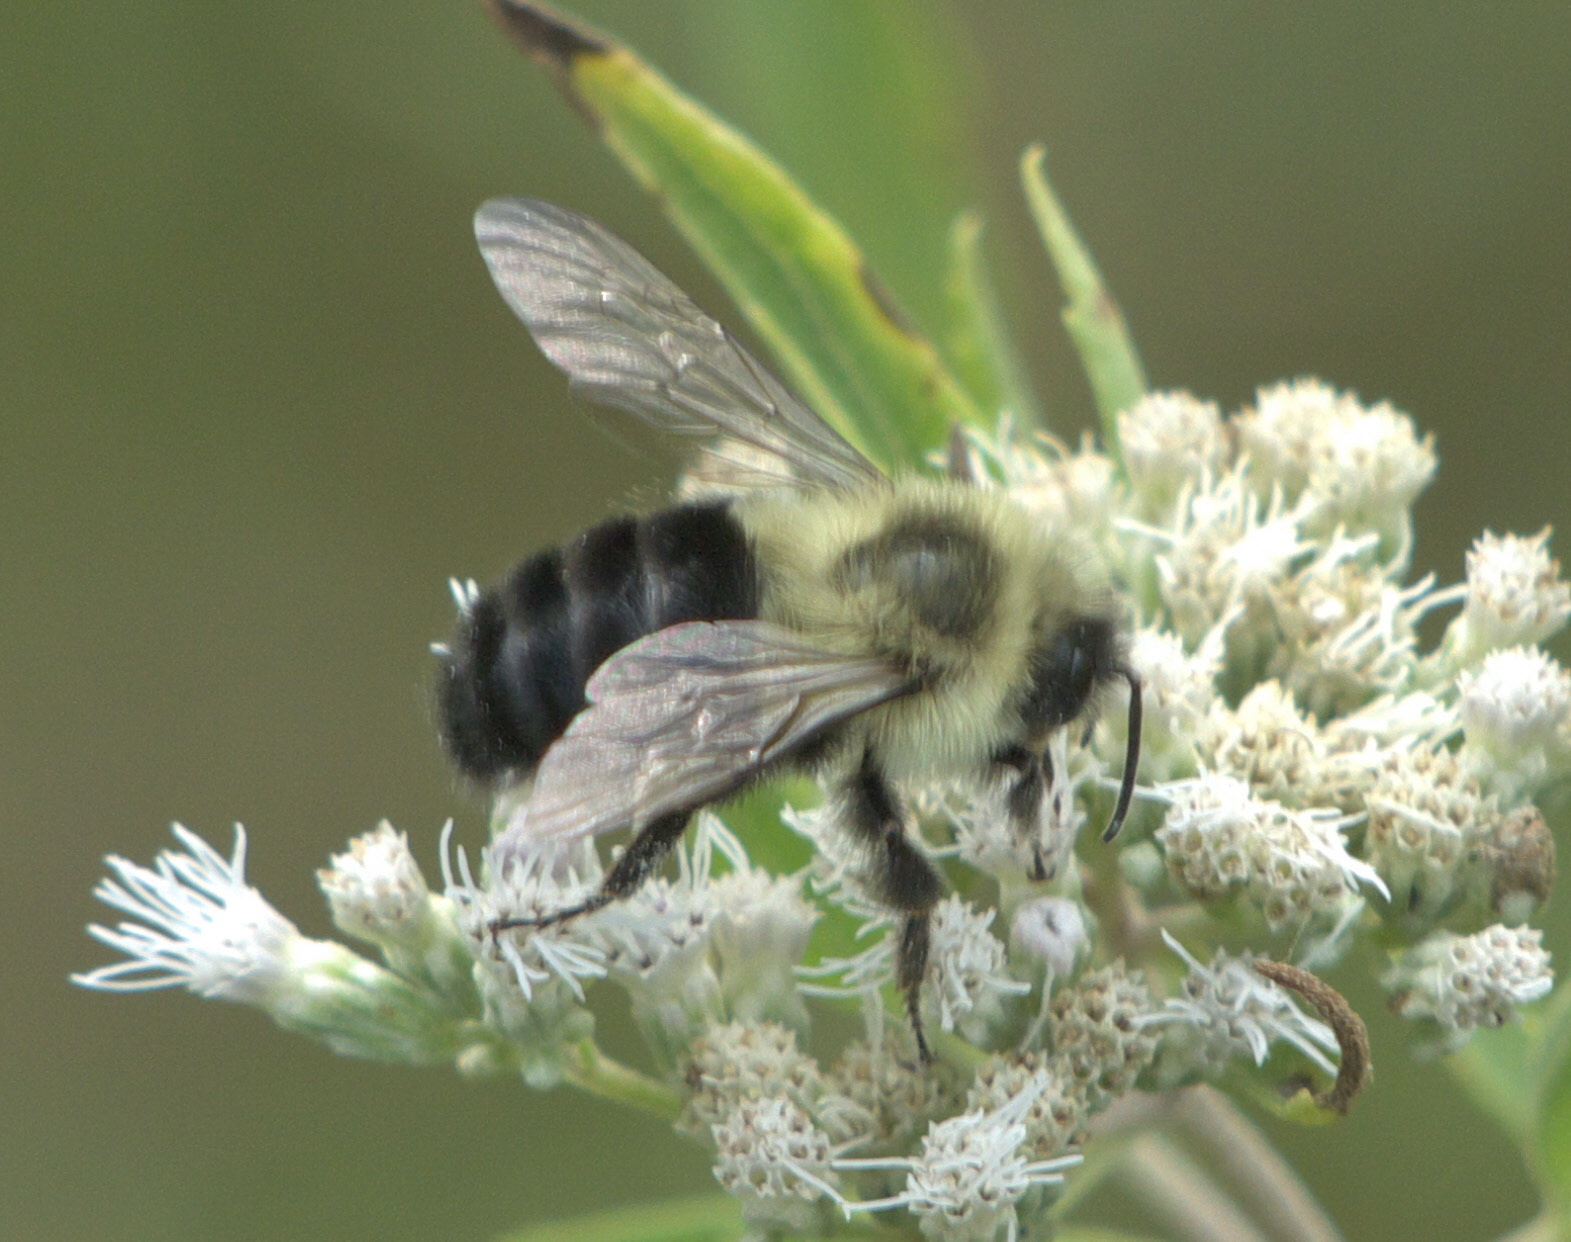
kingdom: Animalia
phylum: Arthropoda
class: Insecta
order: Hymenoptera
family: Apidae
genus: Bombus
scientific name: Bombus impatiens
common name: Common eastern bumble bee
